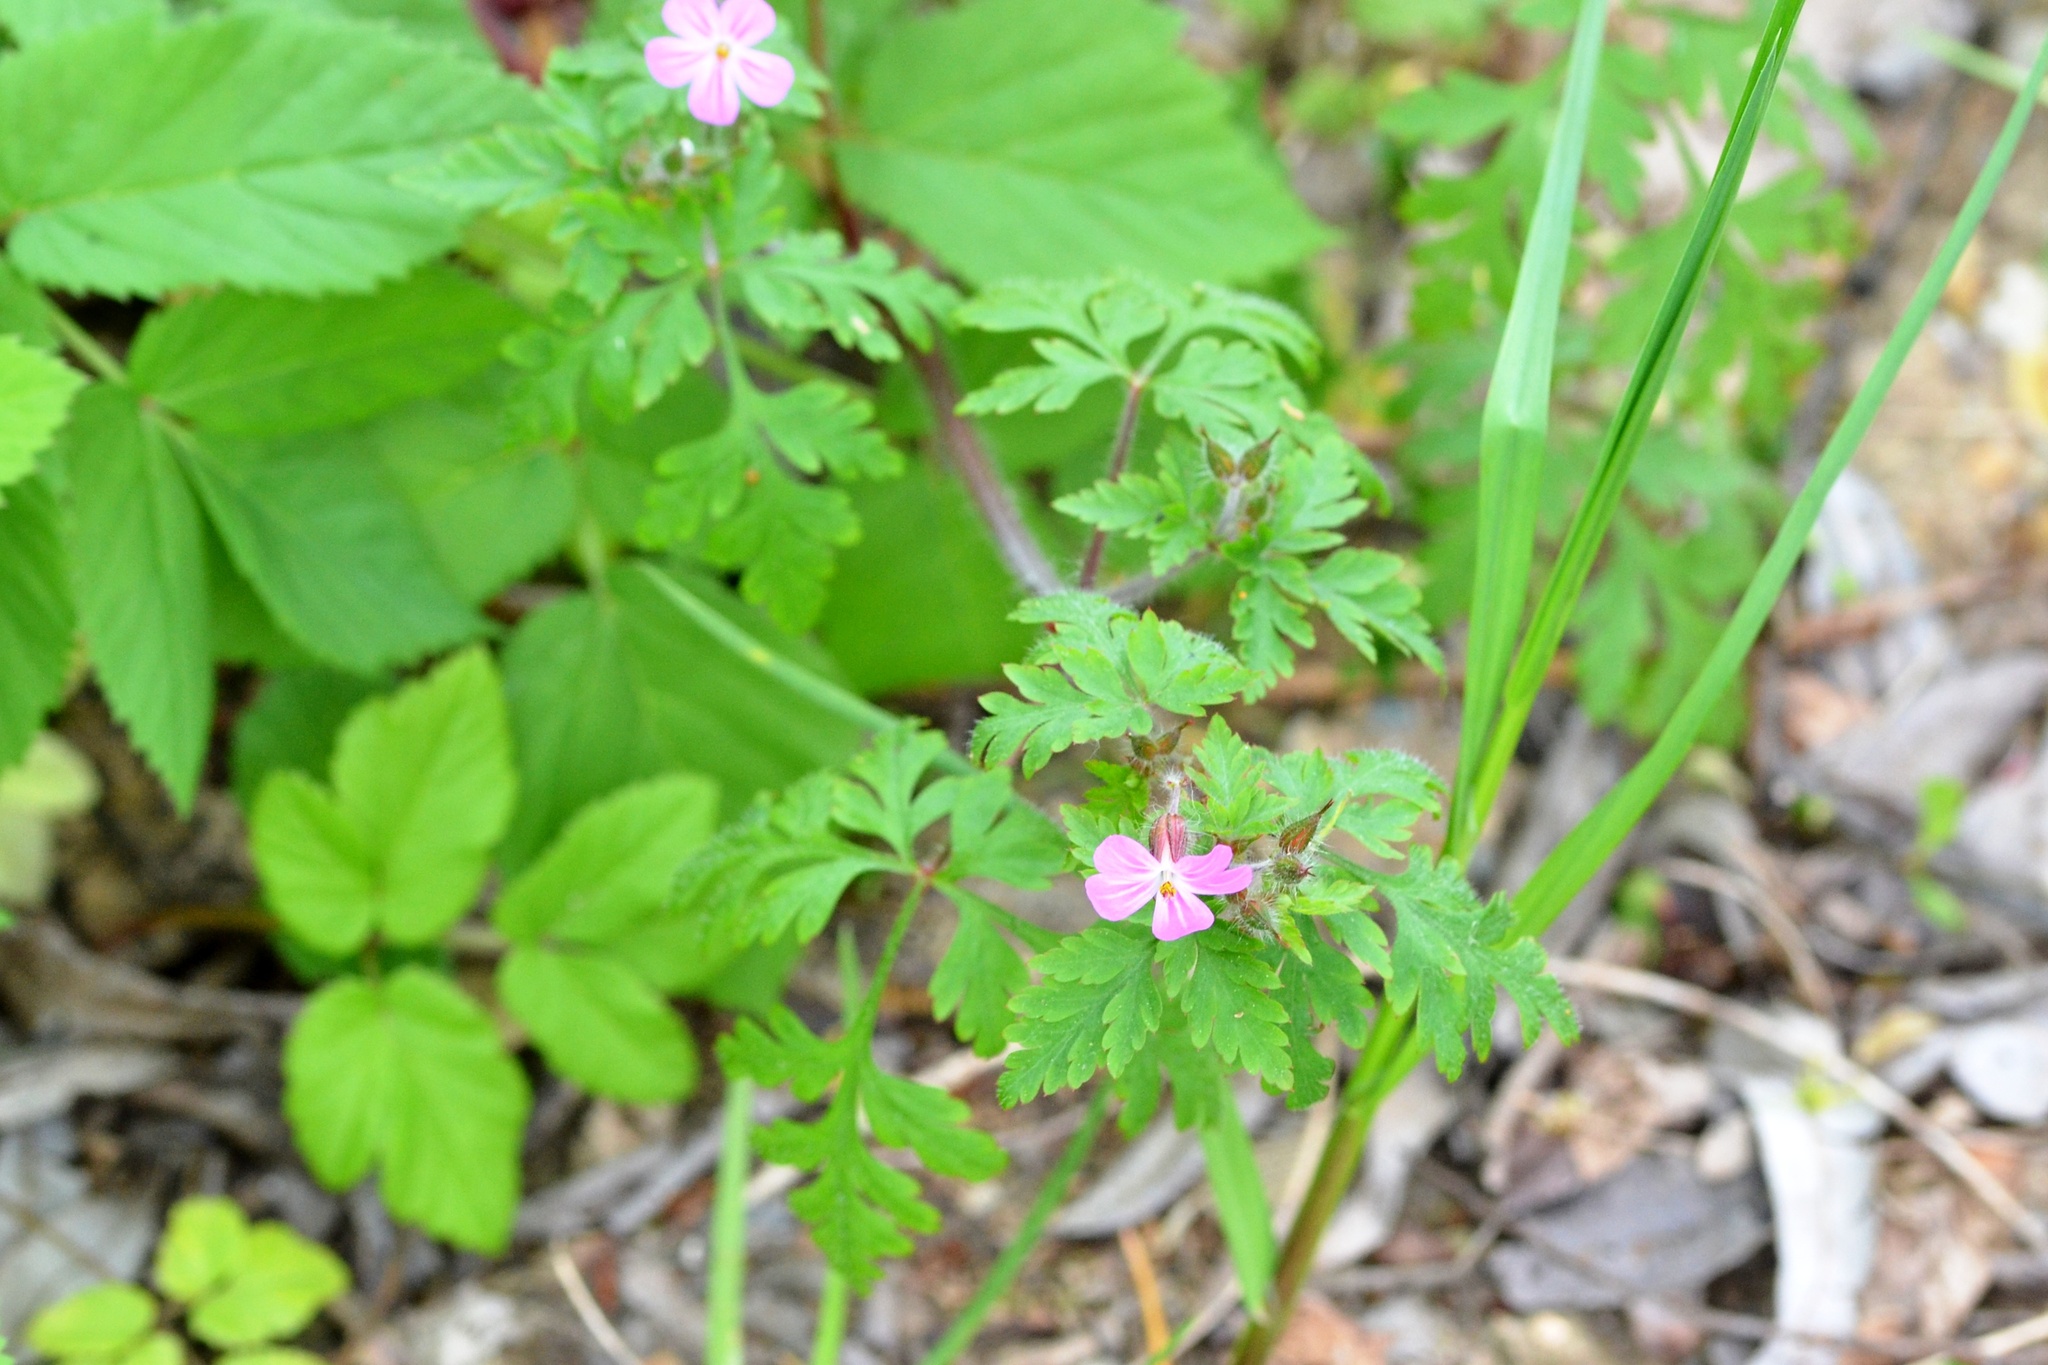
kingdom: Plantae
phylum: Tracheophyta
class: Magnoliopsida
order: Geraniales
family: Geraniaceae
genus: Geranium
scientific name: Geranium robertianum
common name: Herb-robert
